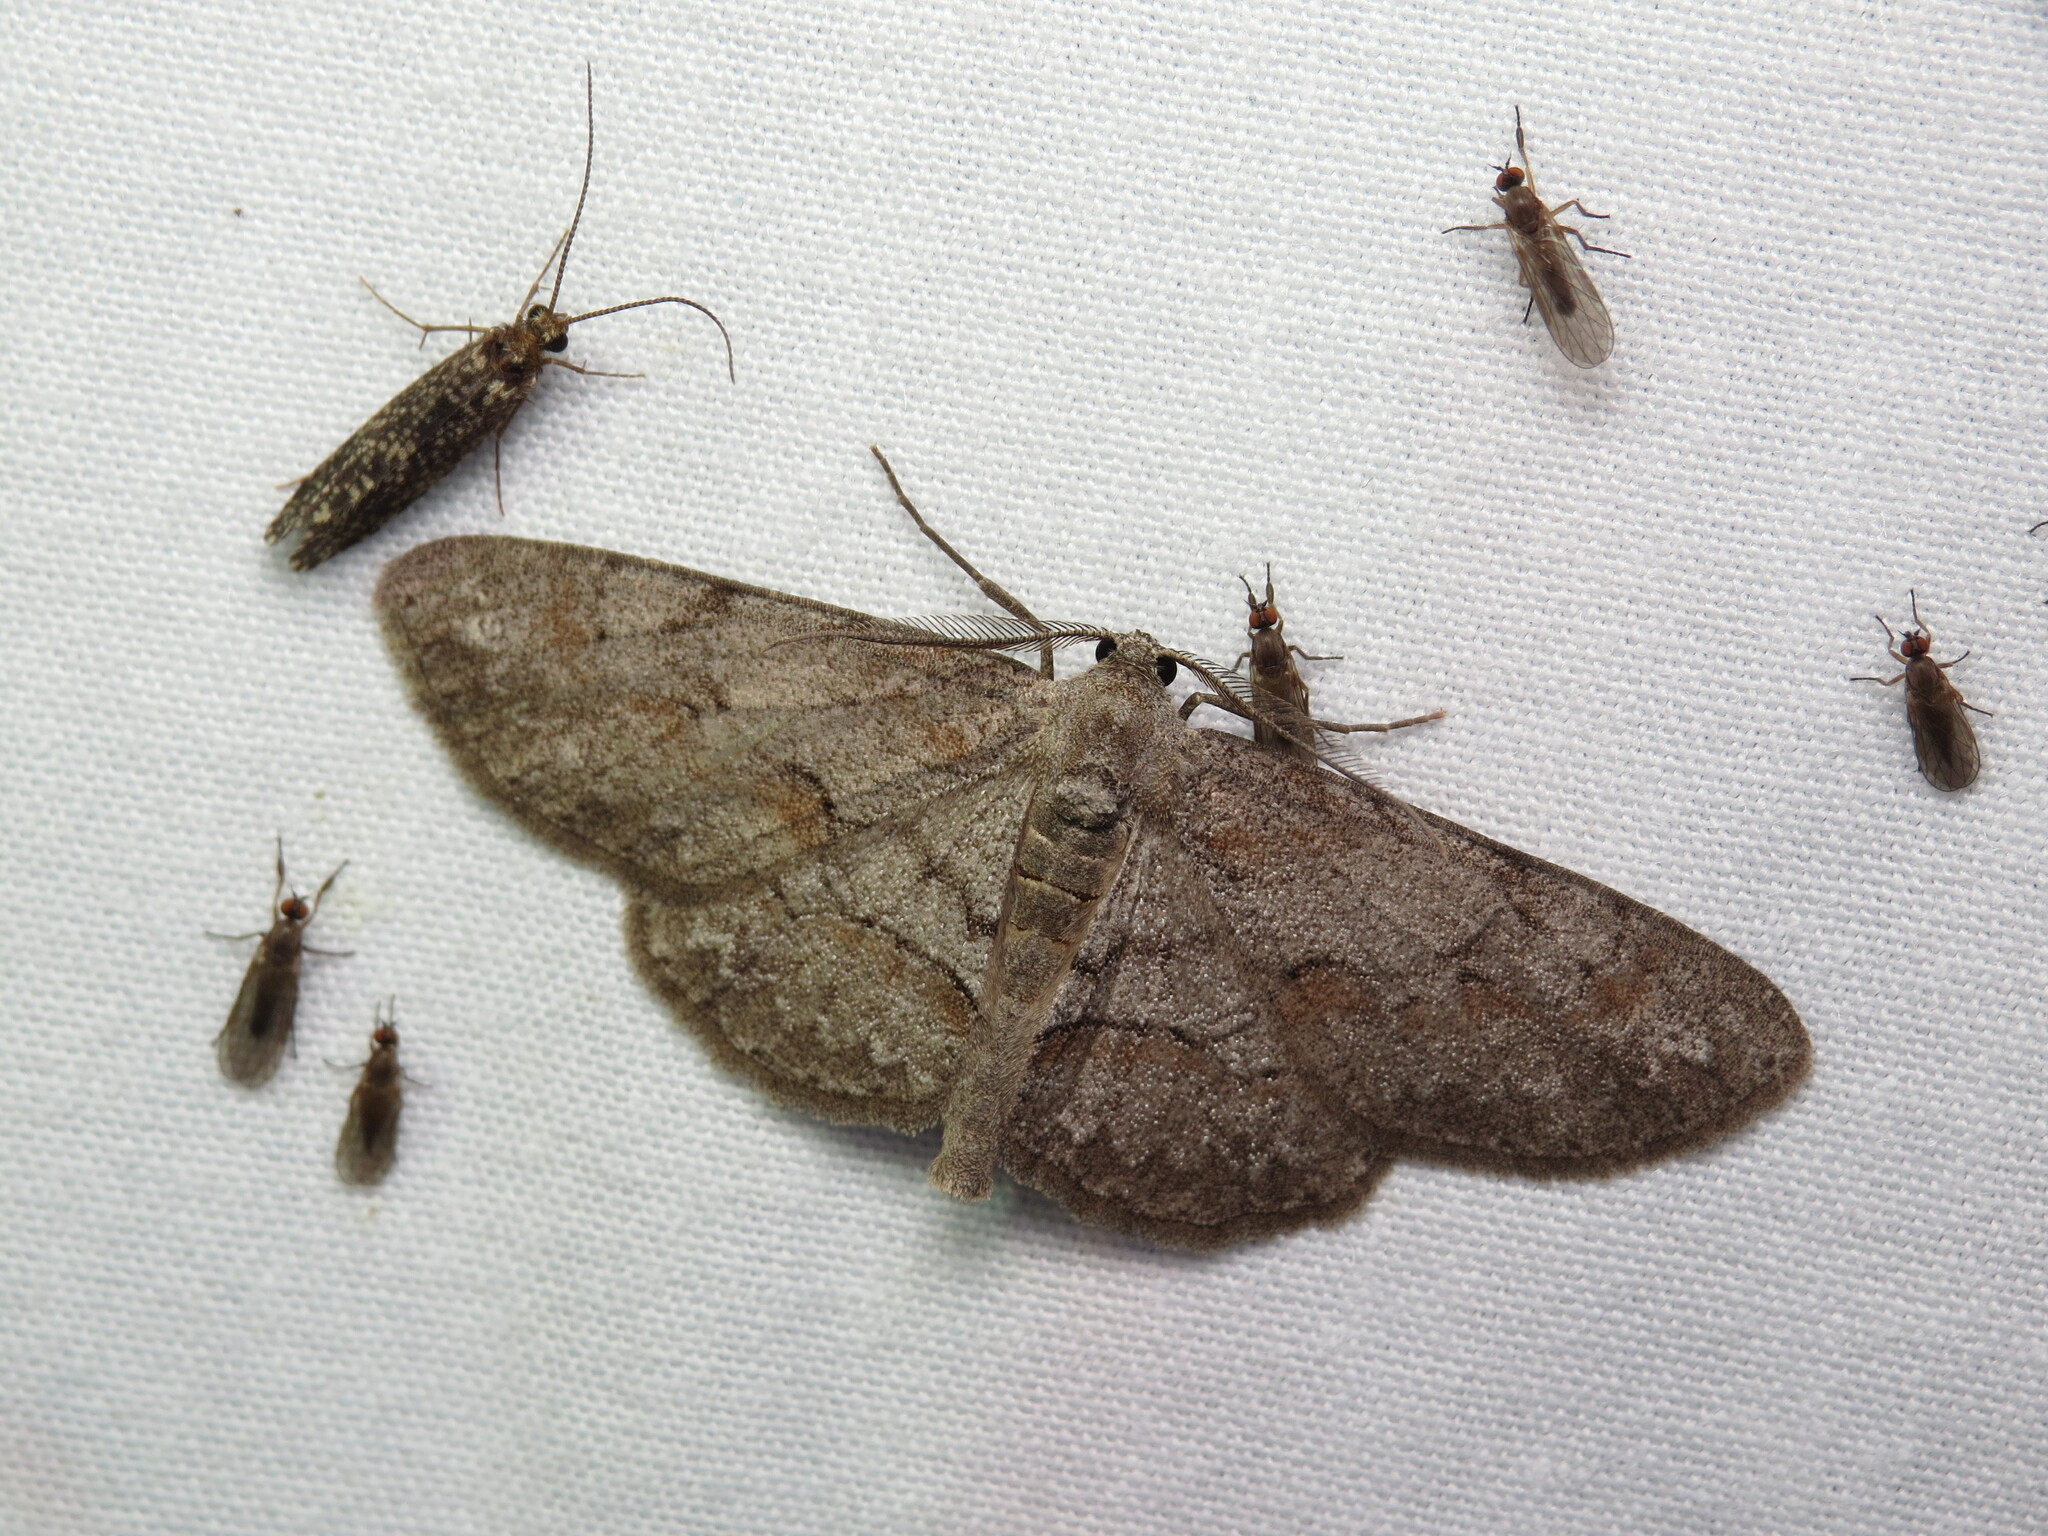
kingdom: Animalia
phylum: Arthropoda
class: Insecta
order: Lepidoptera
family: Geometridae
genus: Iridopsis
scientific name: Iridopsis vellivolata
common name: Large purplish gray
